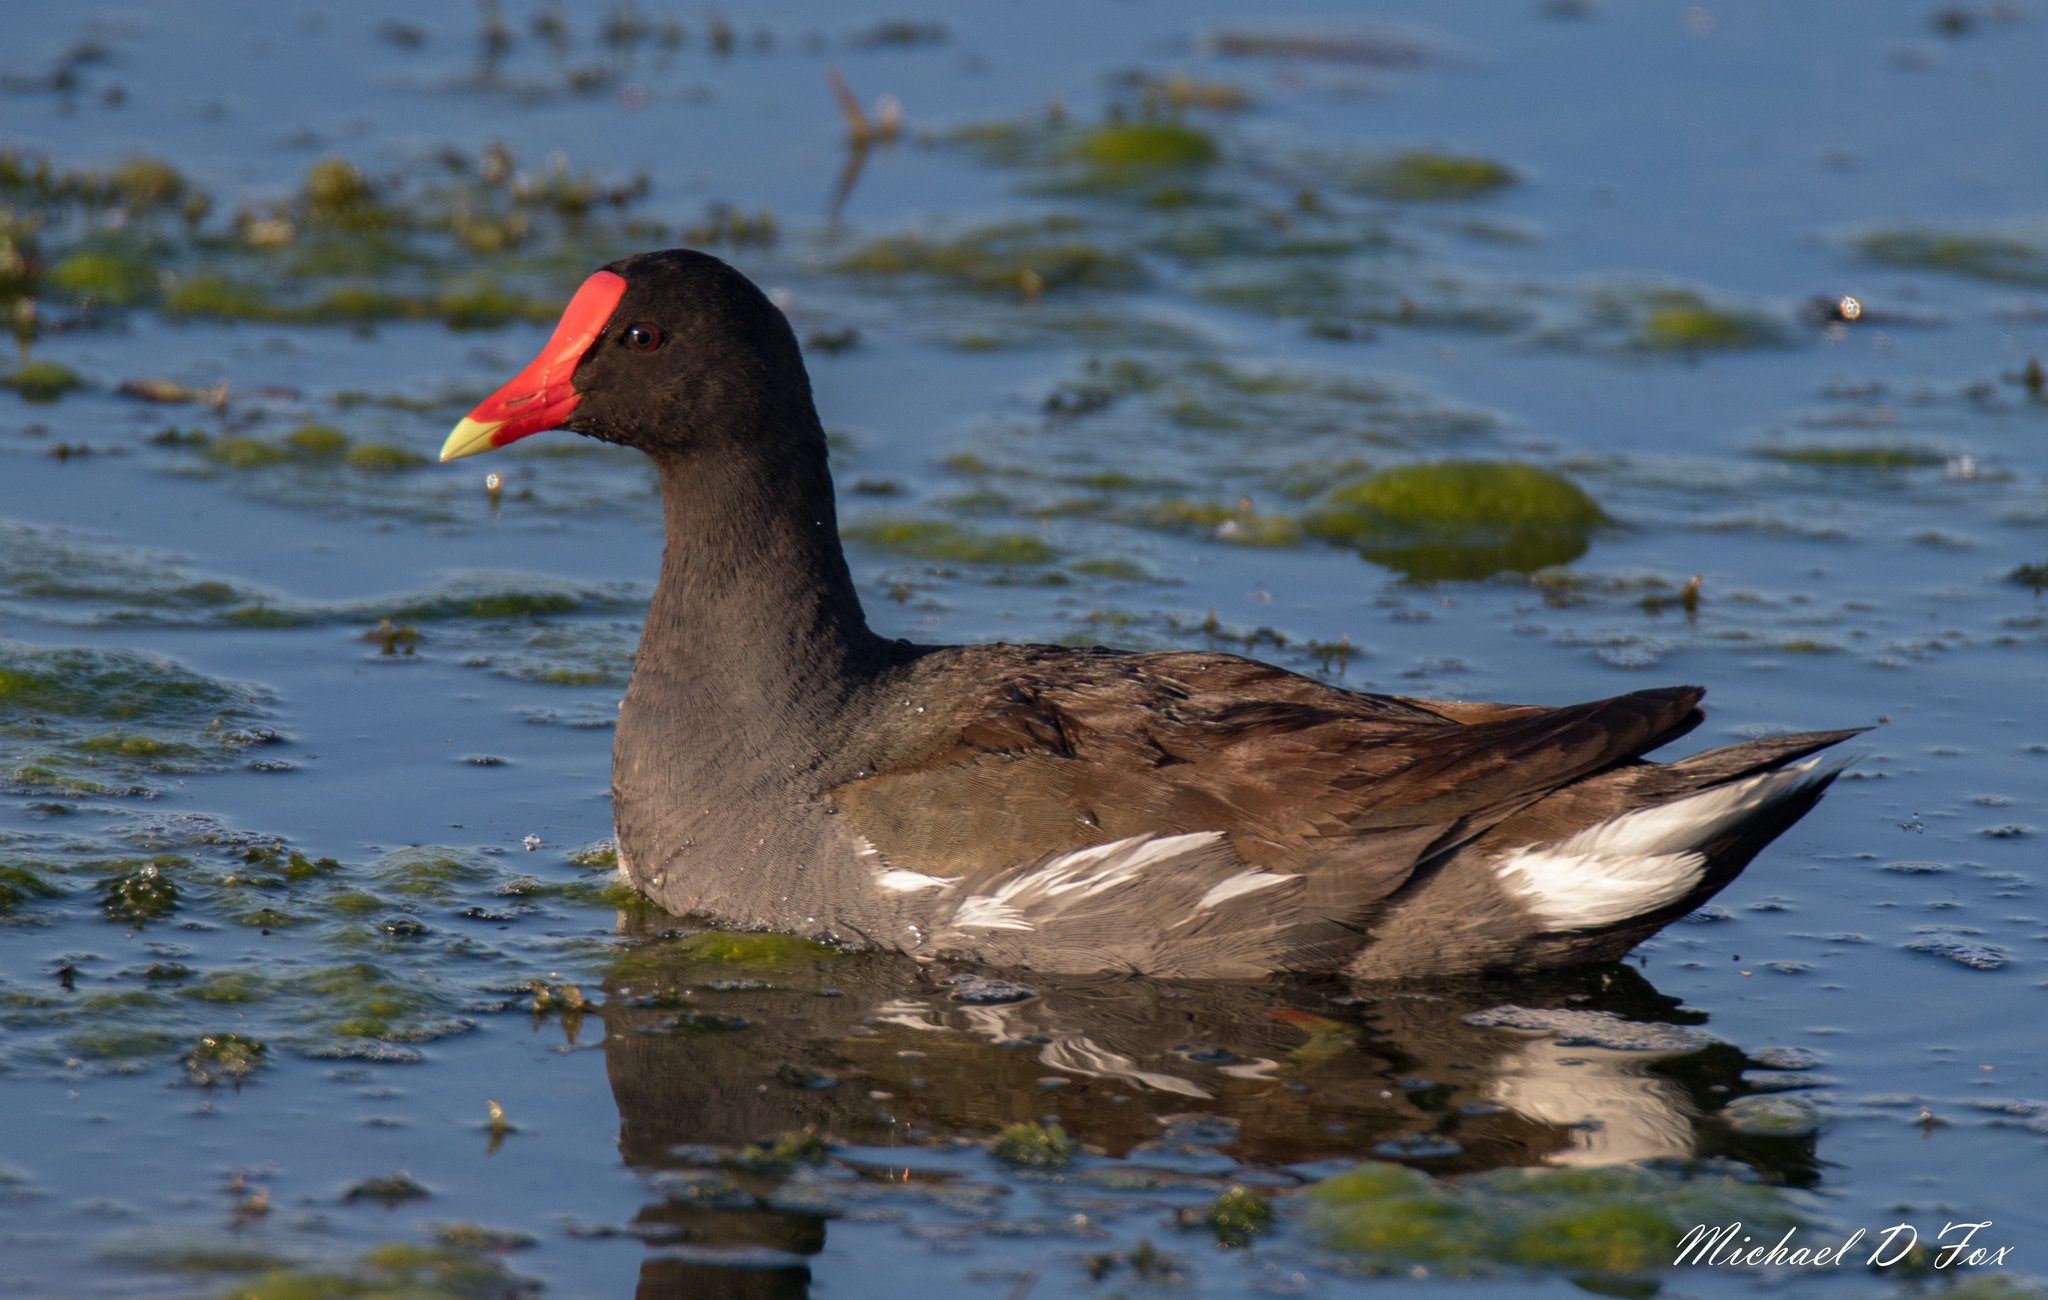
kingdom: Animalia
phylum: Chordata
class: Aves
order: Gruiformes
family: Rallidae
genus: Gallinula
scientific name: Gallinula chloropus
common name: Common moorhen
